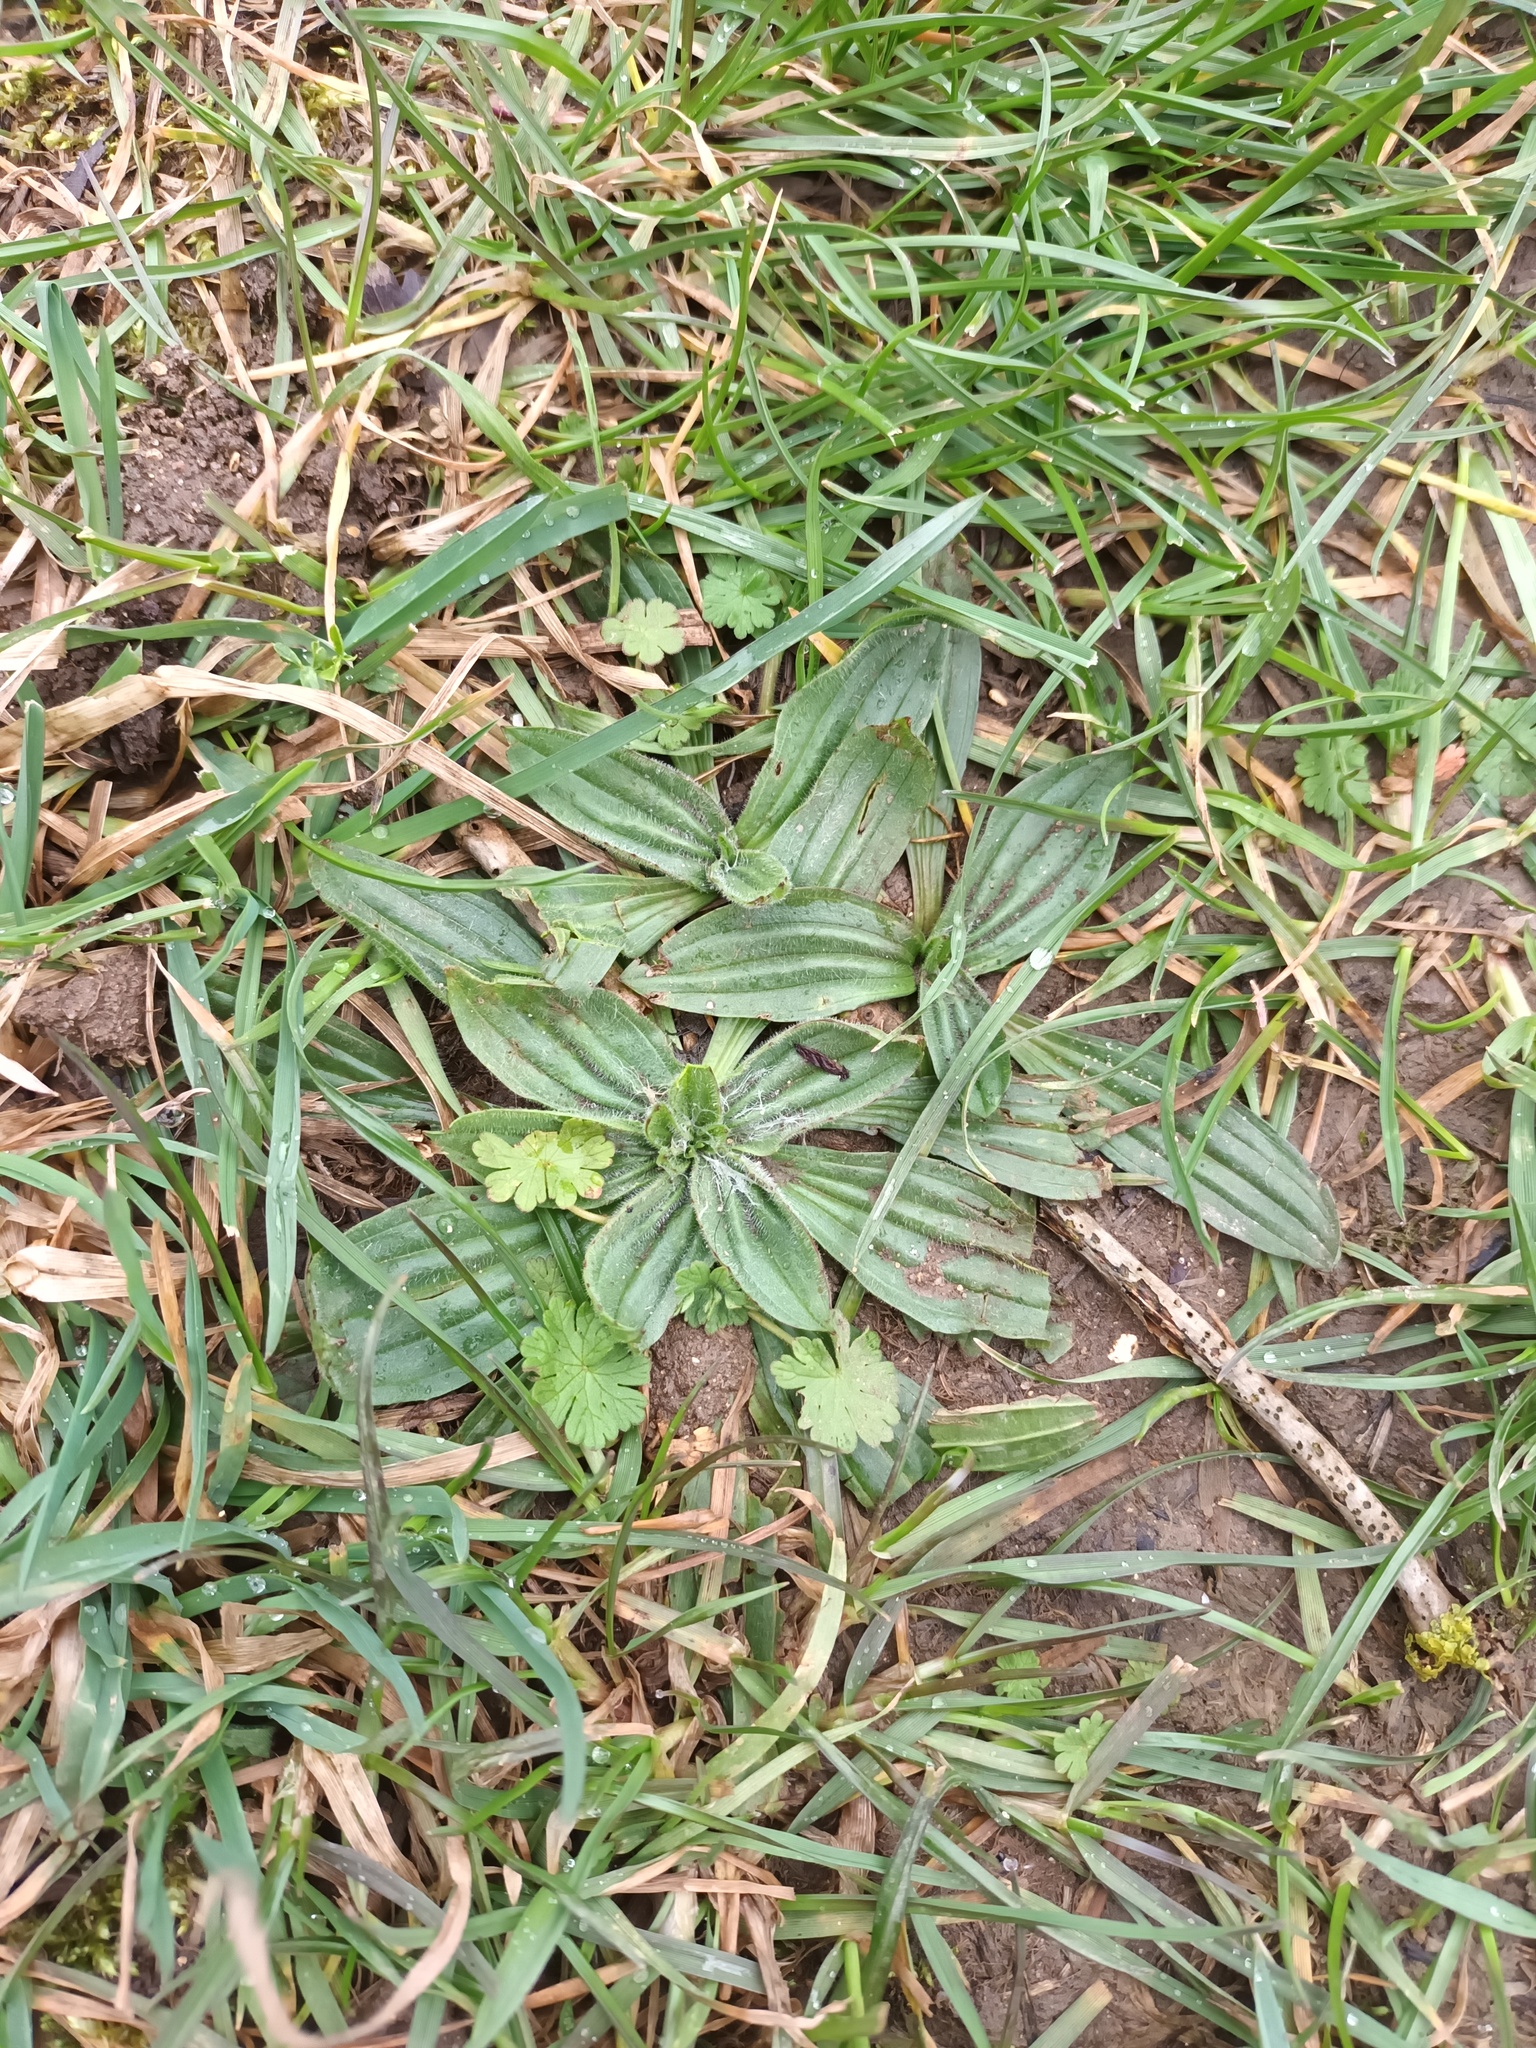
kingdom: Plantae
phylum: Tracheophyta
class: Magnoliopsida
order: Lamiales
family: Plantaginaceae
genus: Plantago
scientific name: Plantago lanceolata
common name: Ribwort plantain
